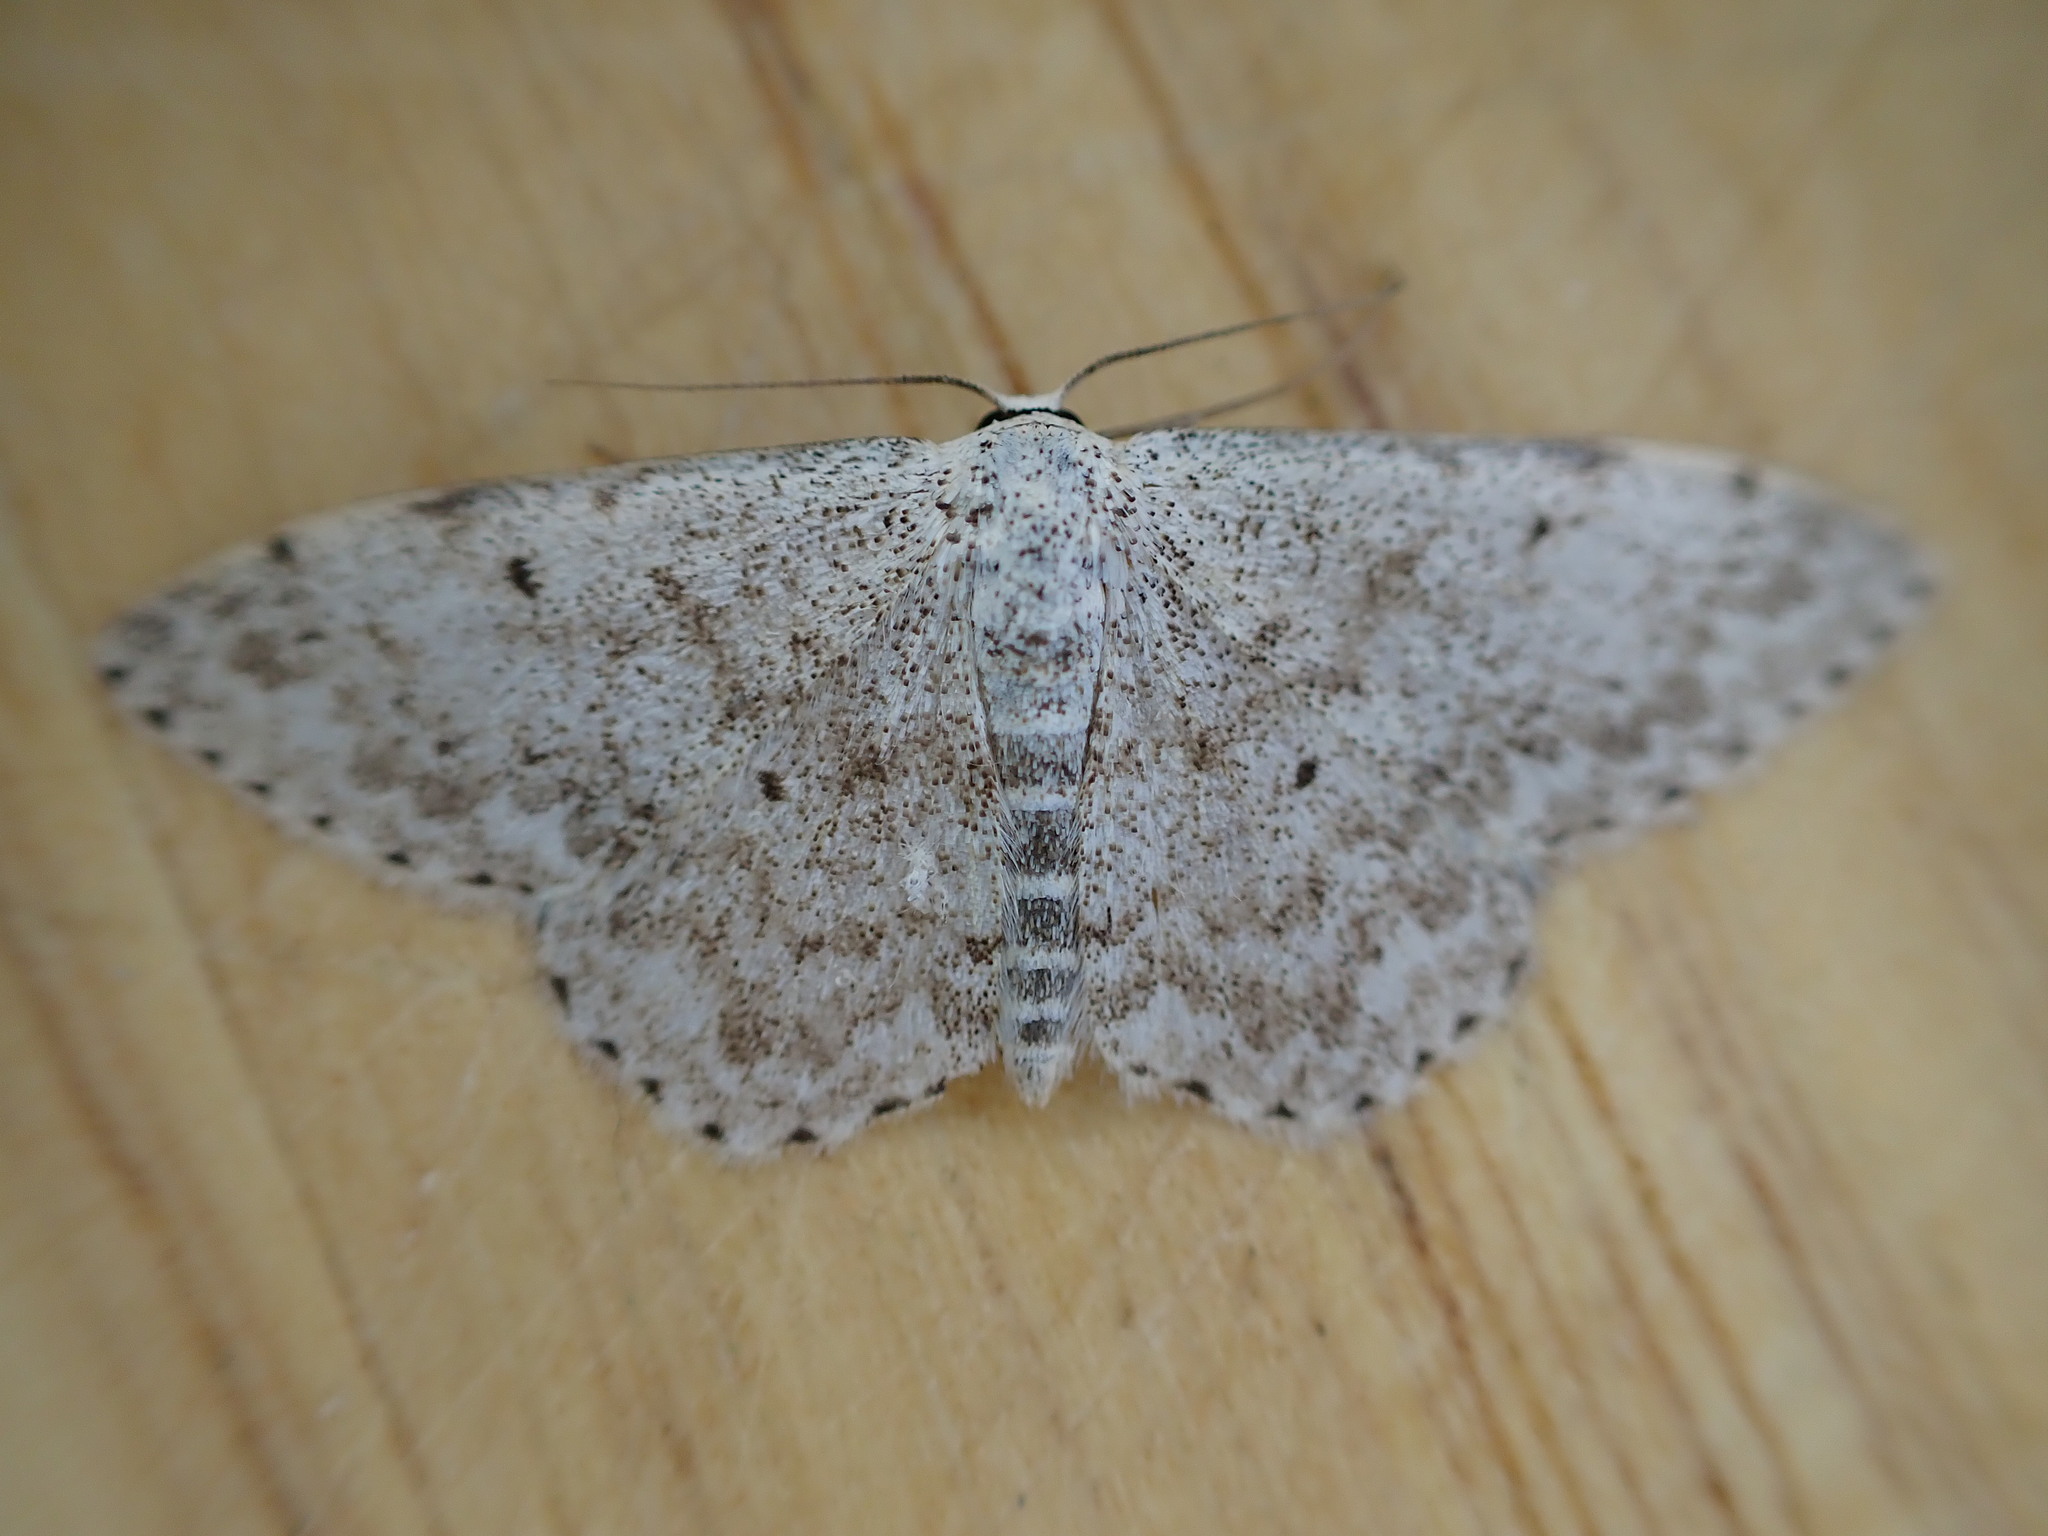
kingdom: Animalia
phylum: Arthropoda
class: Insecta
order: Lepidoptera
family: Geometridae
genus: Scopula
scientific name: Scopula marginepunctata
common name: Mullein wave
